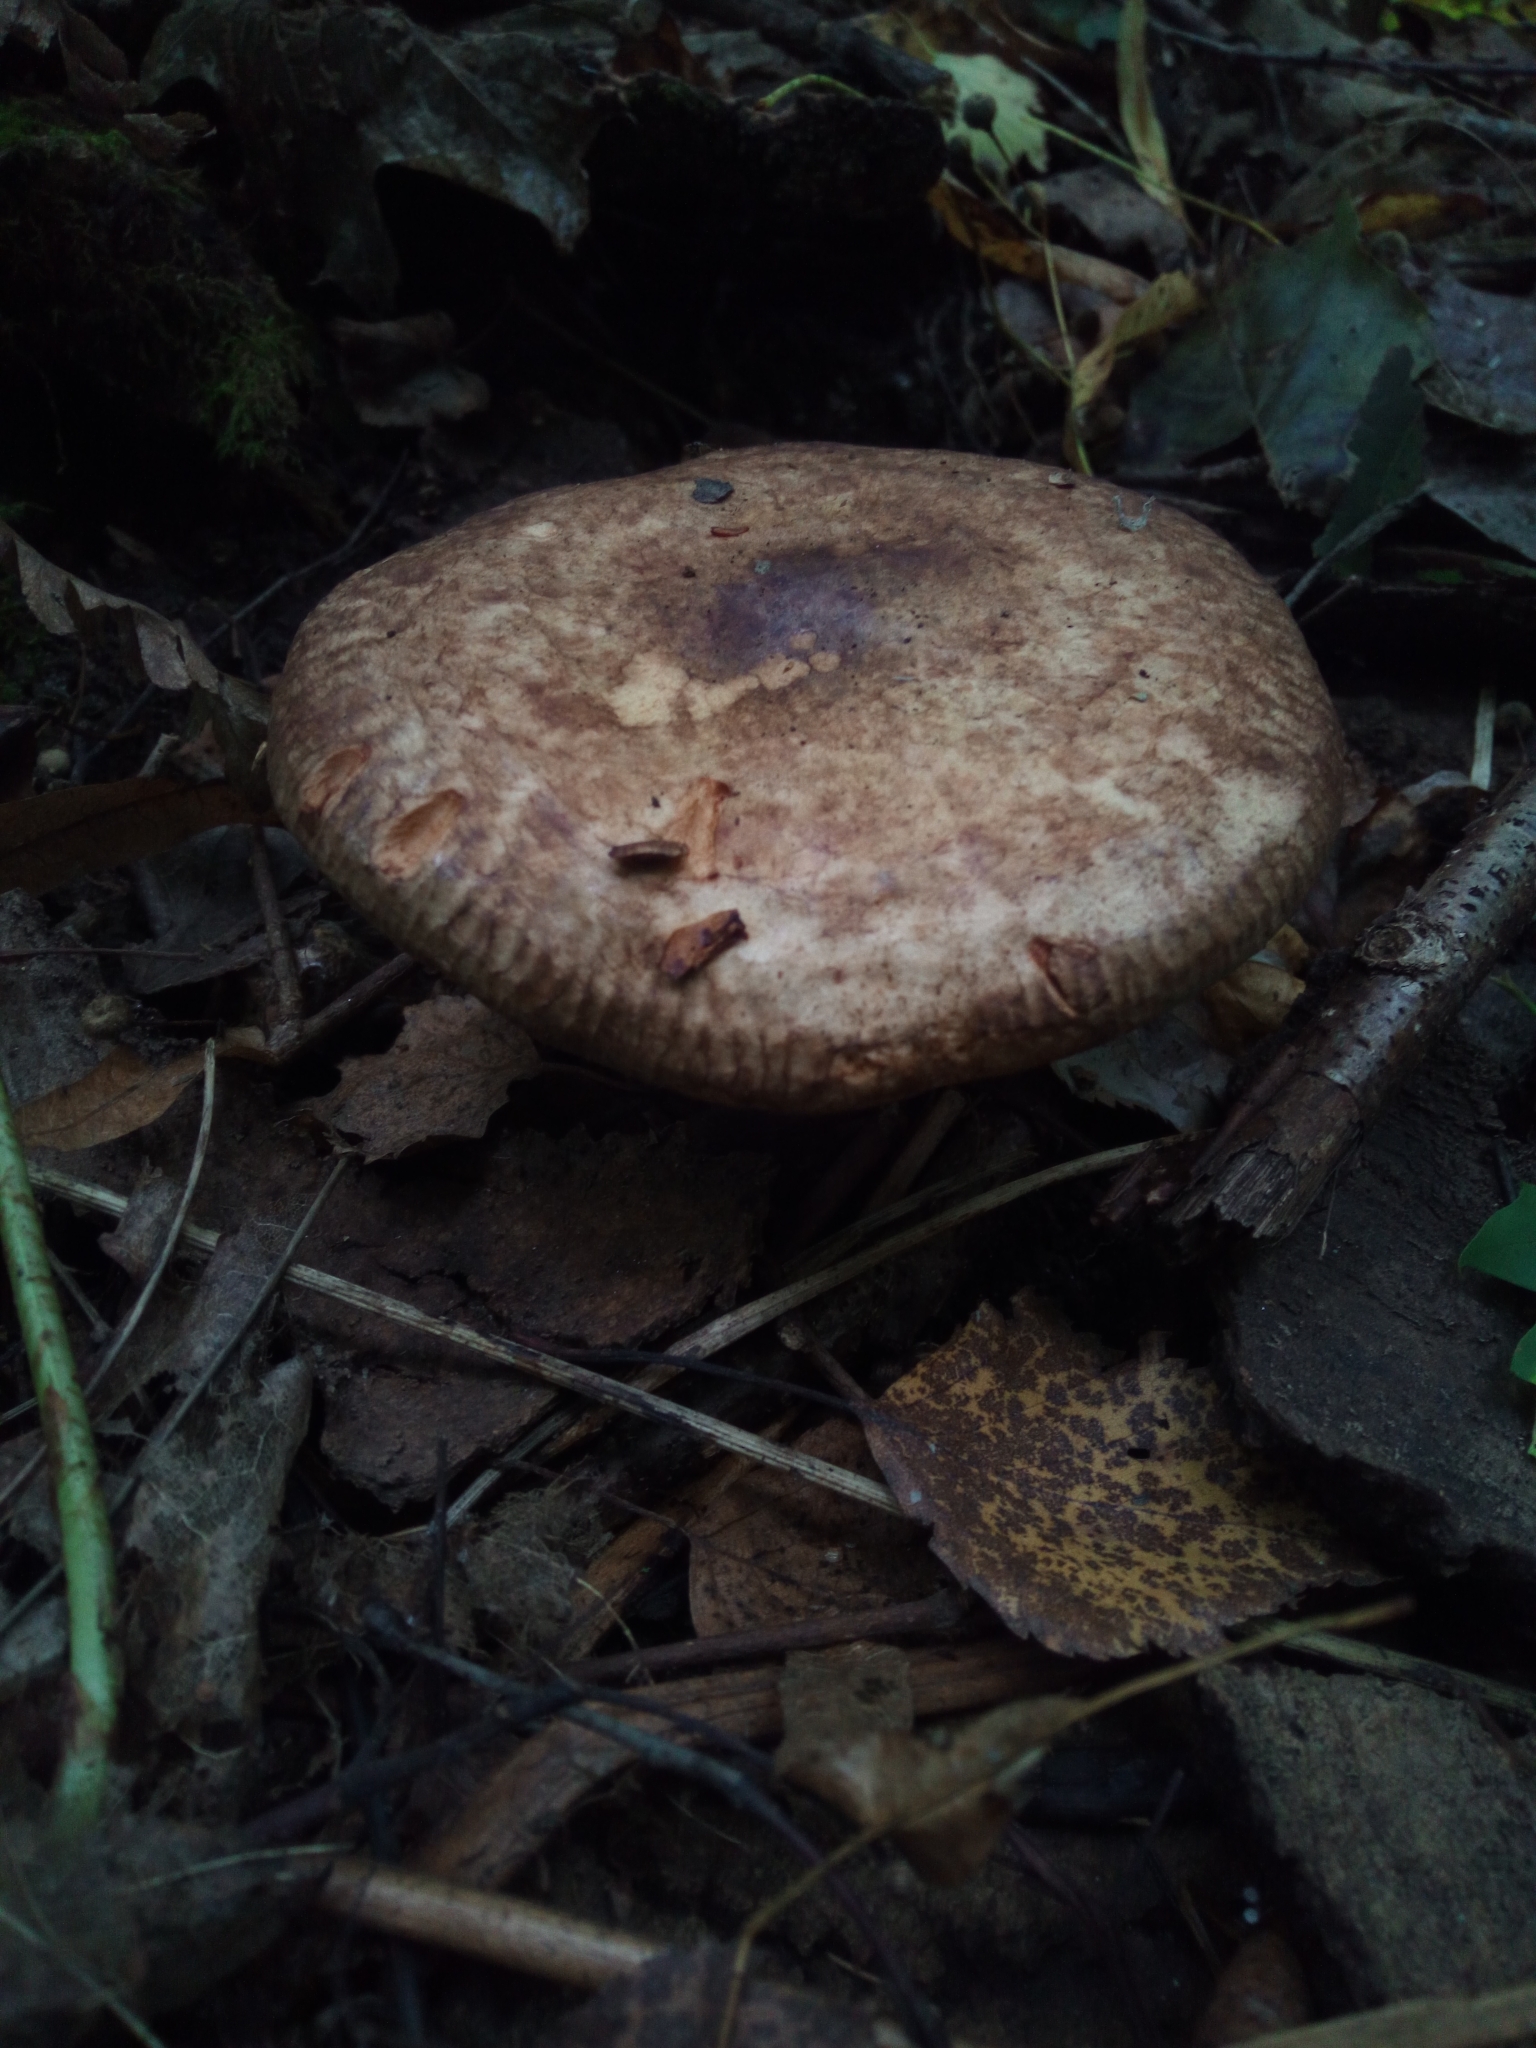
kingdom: Fungi
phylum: Basidiomycota
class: Agaricomycetes
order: Boletales
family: Paxillaceae
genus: Paxillus
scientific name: Paxillus involutus
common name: Brown roll rim
